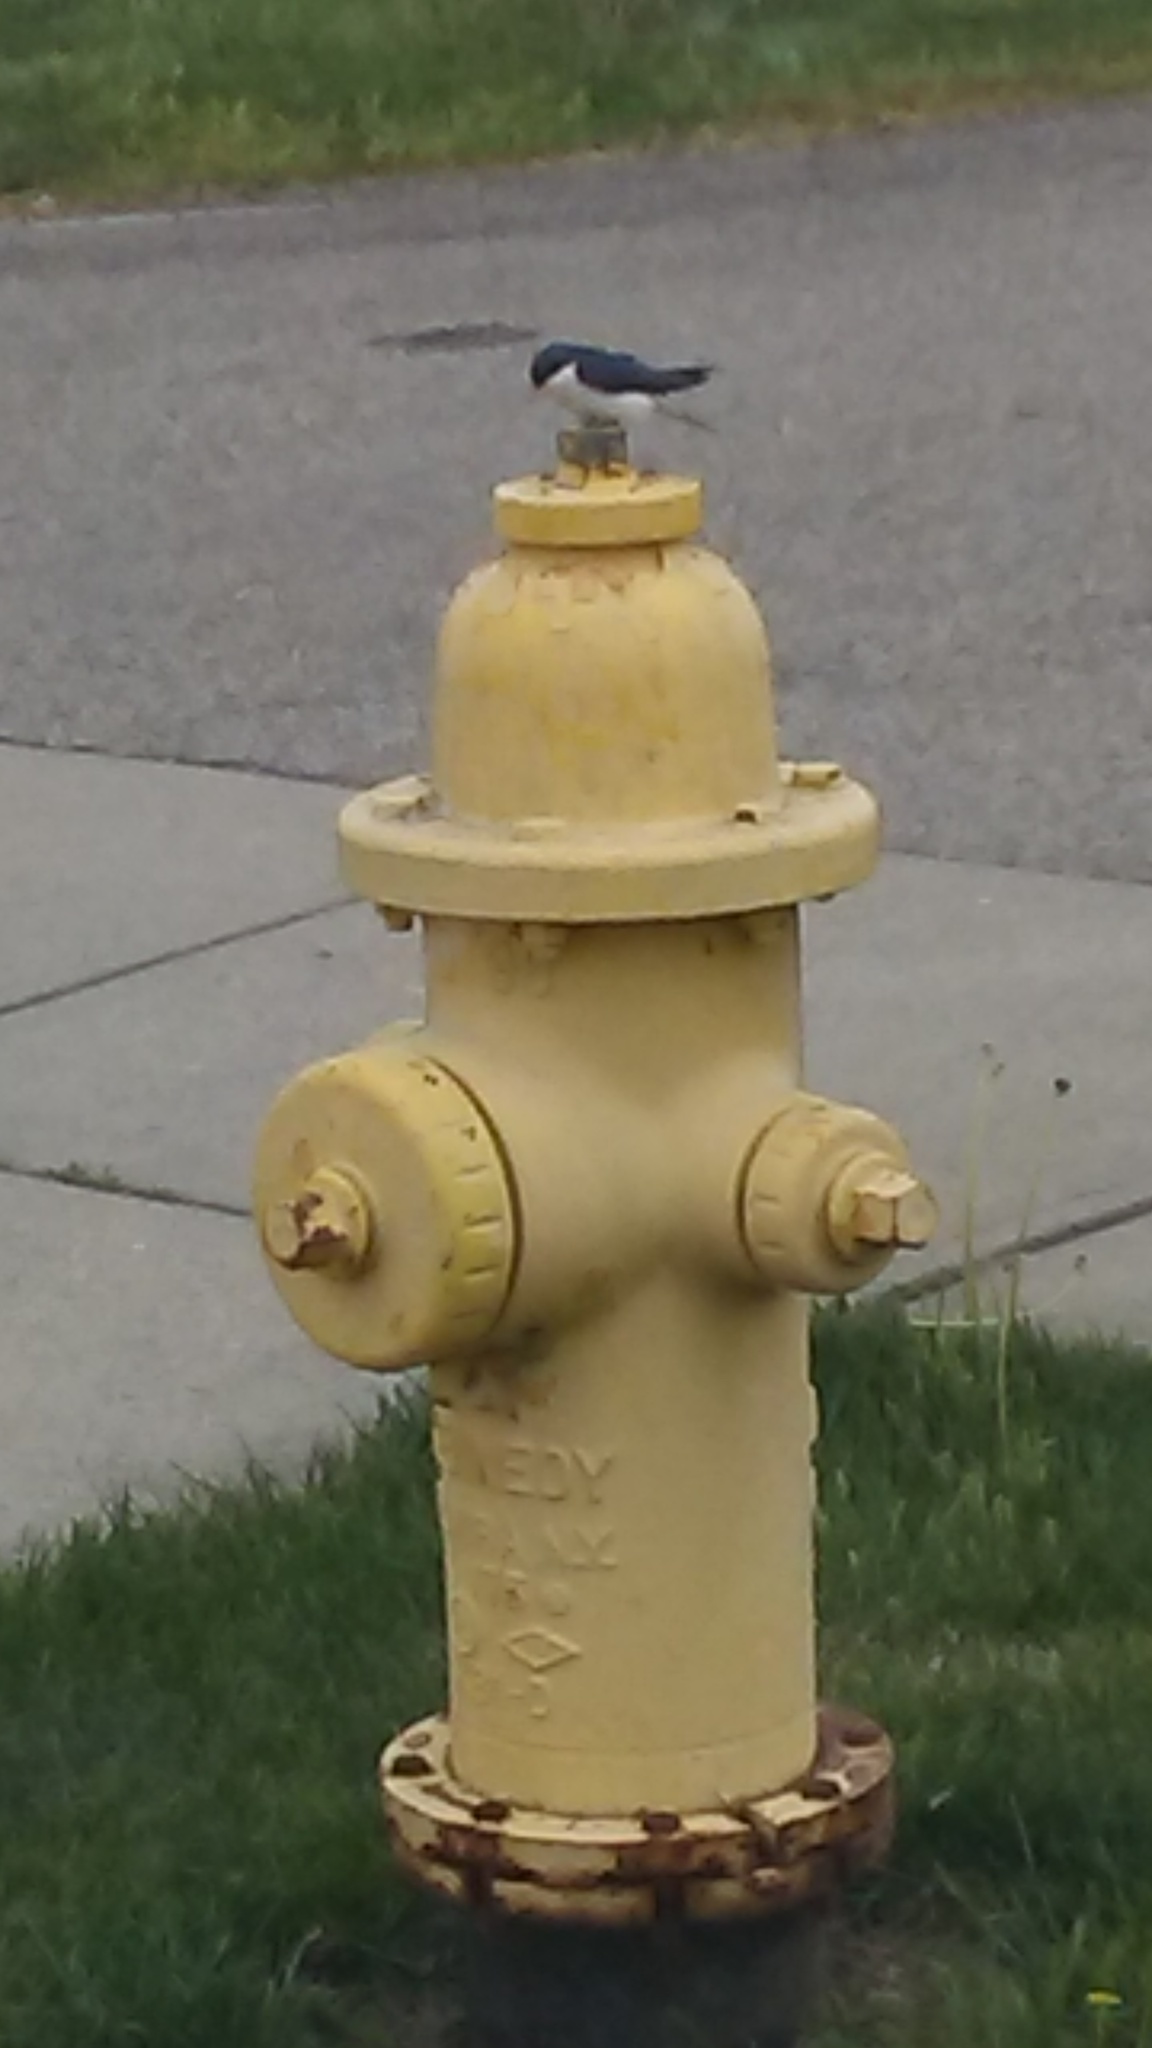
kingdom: Animalia
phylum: Chordata
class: Aves
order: Passeriformes
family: Hirundinidae
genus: Tachycineta
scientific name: Tachycineta bicolor
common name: Tree swallow
